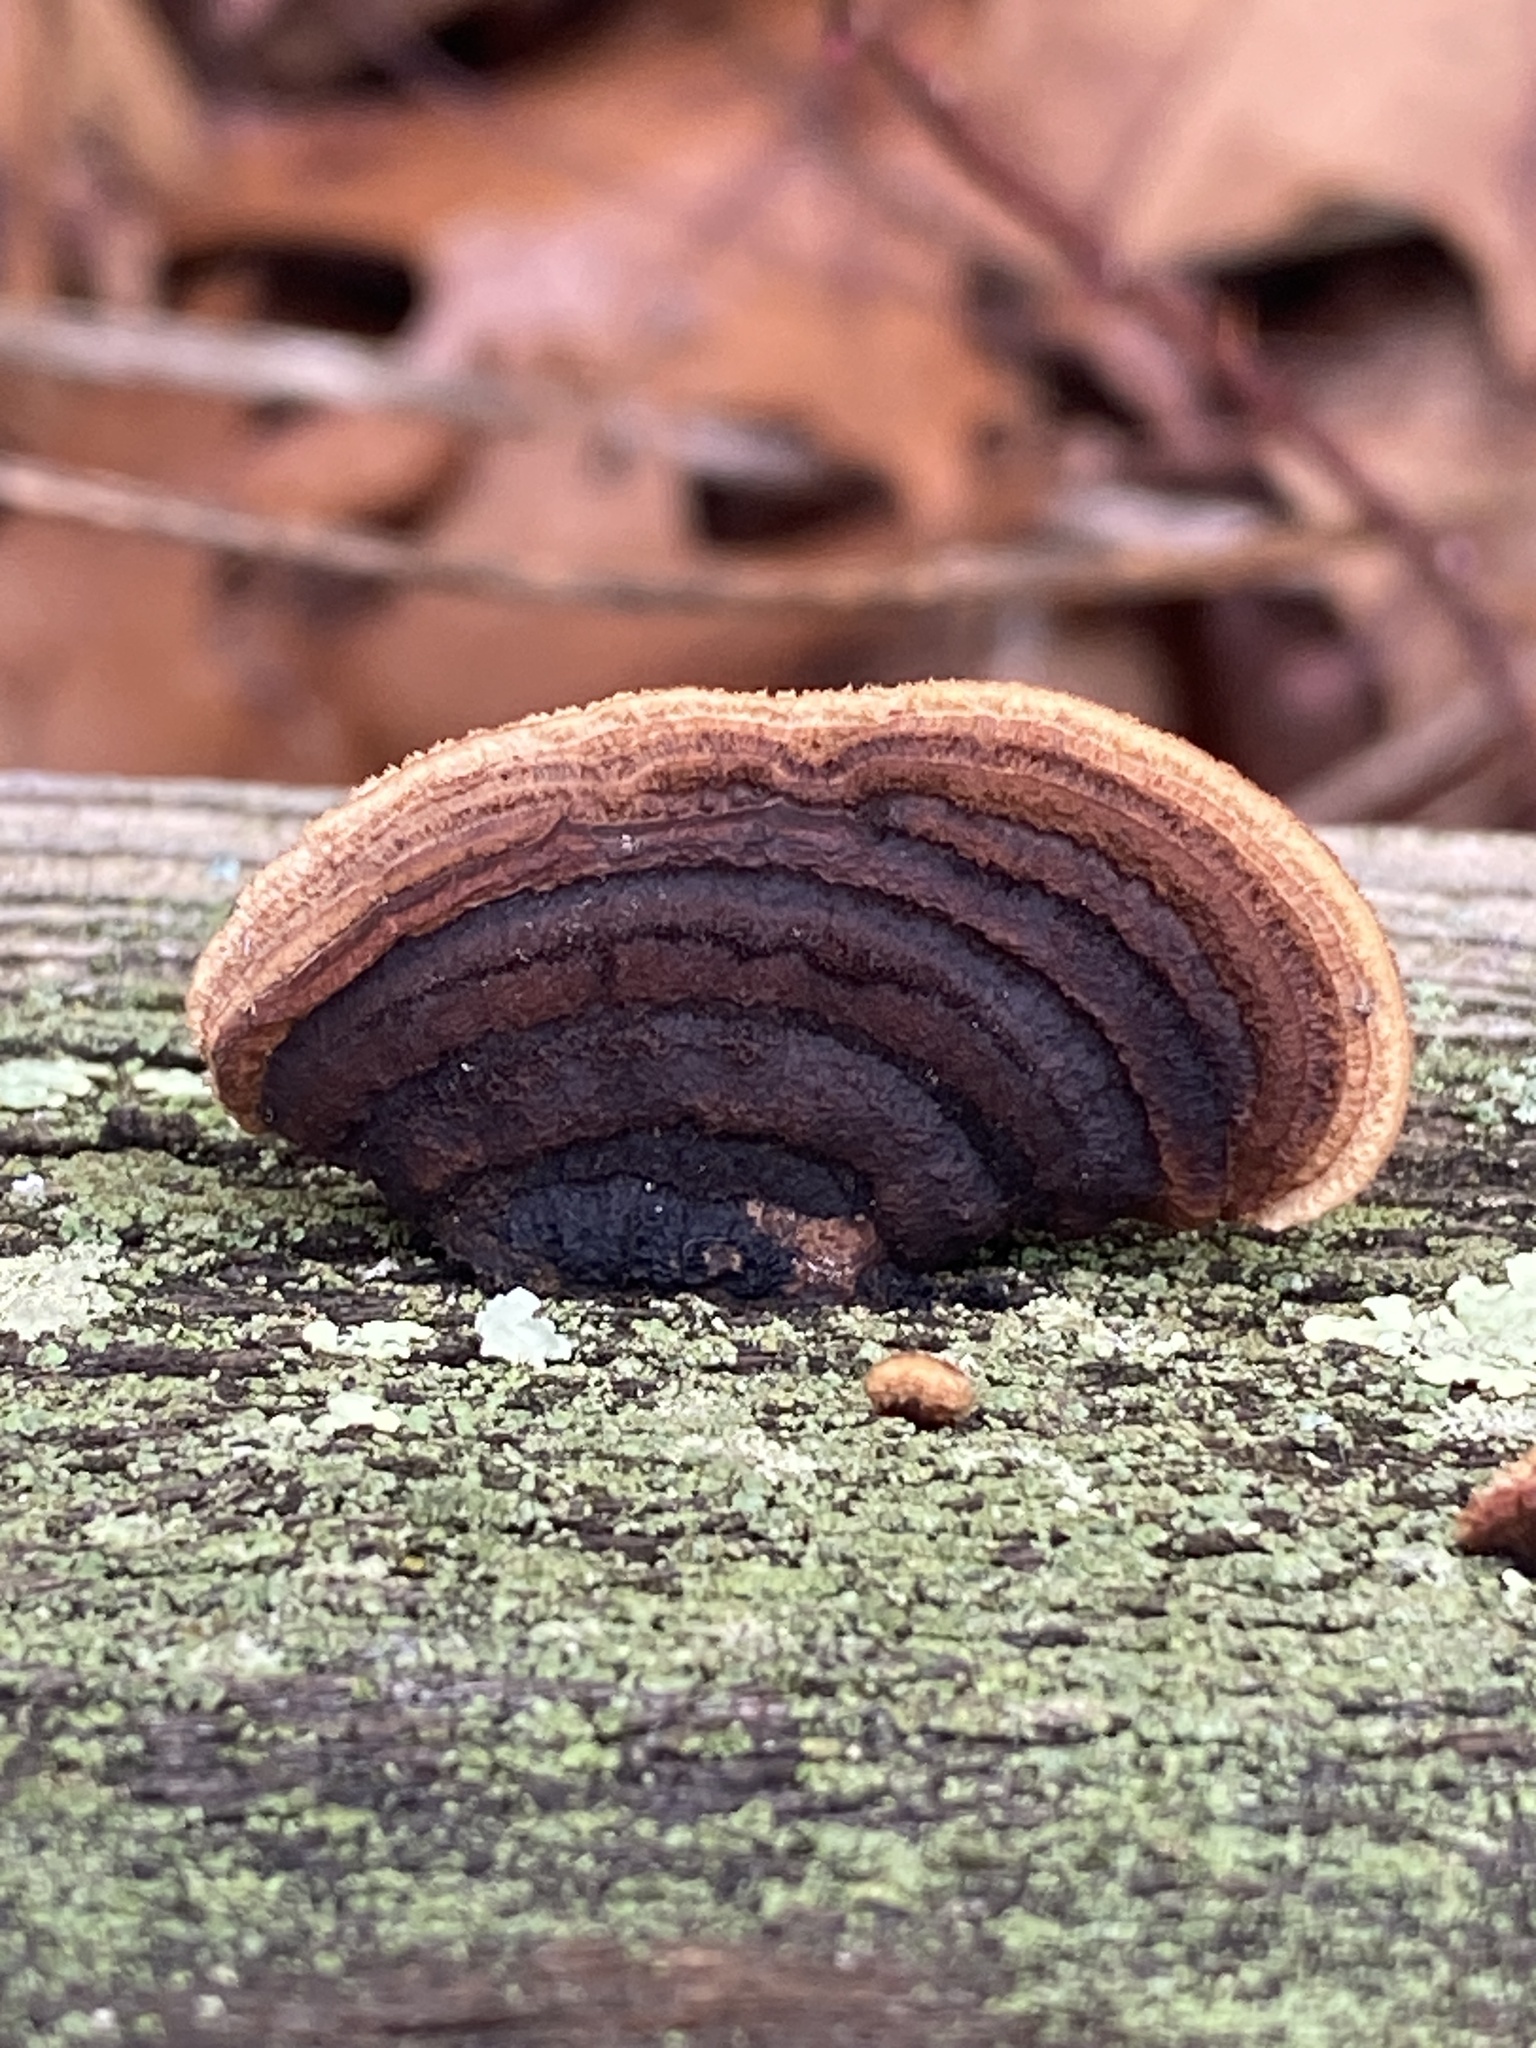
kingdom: Fungi
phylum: Basidiomycota
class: Agaricomycetes
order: Gloeophyllales
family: Gloeophyllaceae
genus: Gloeophyllum
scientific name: Gloeophyllum sepiarium
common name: Conifer mazegill
